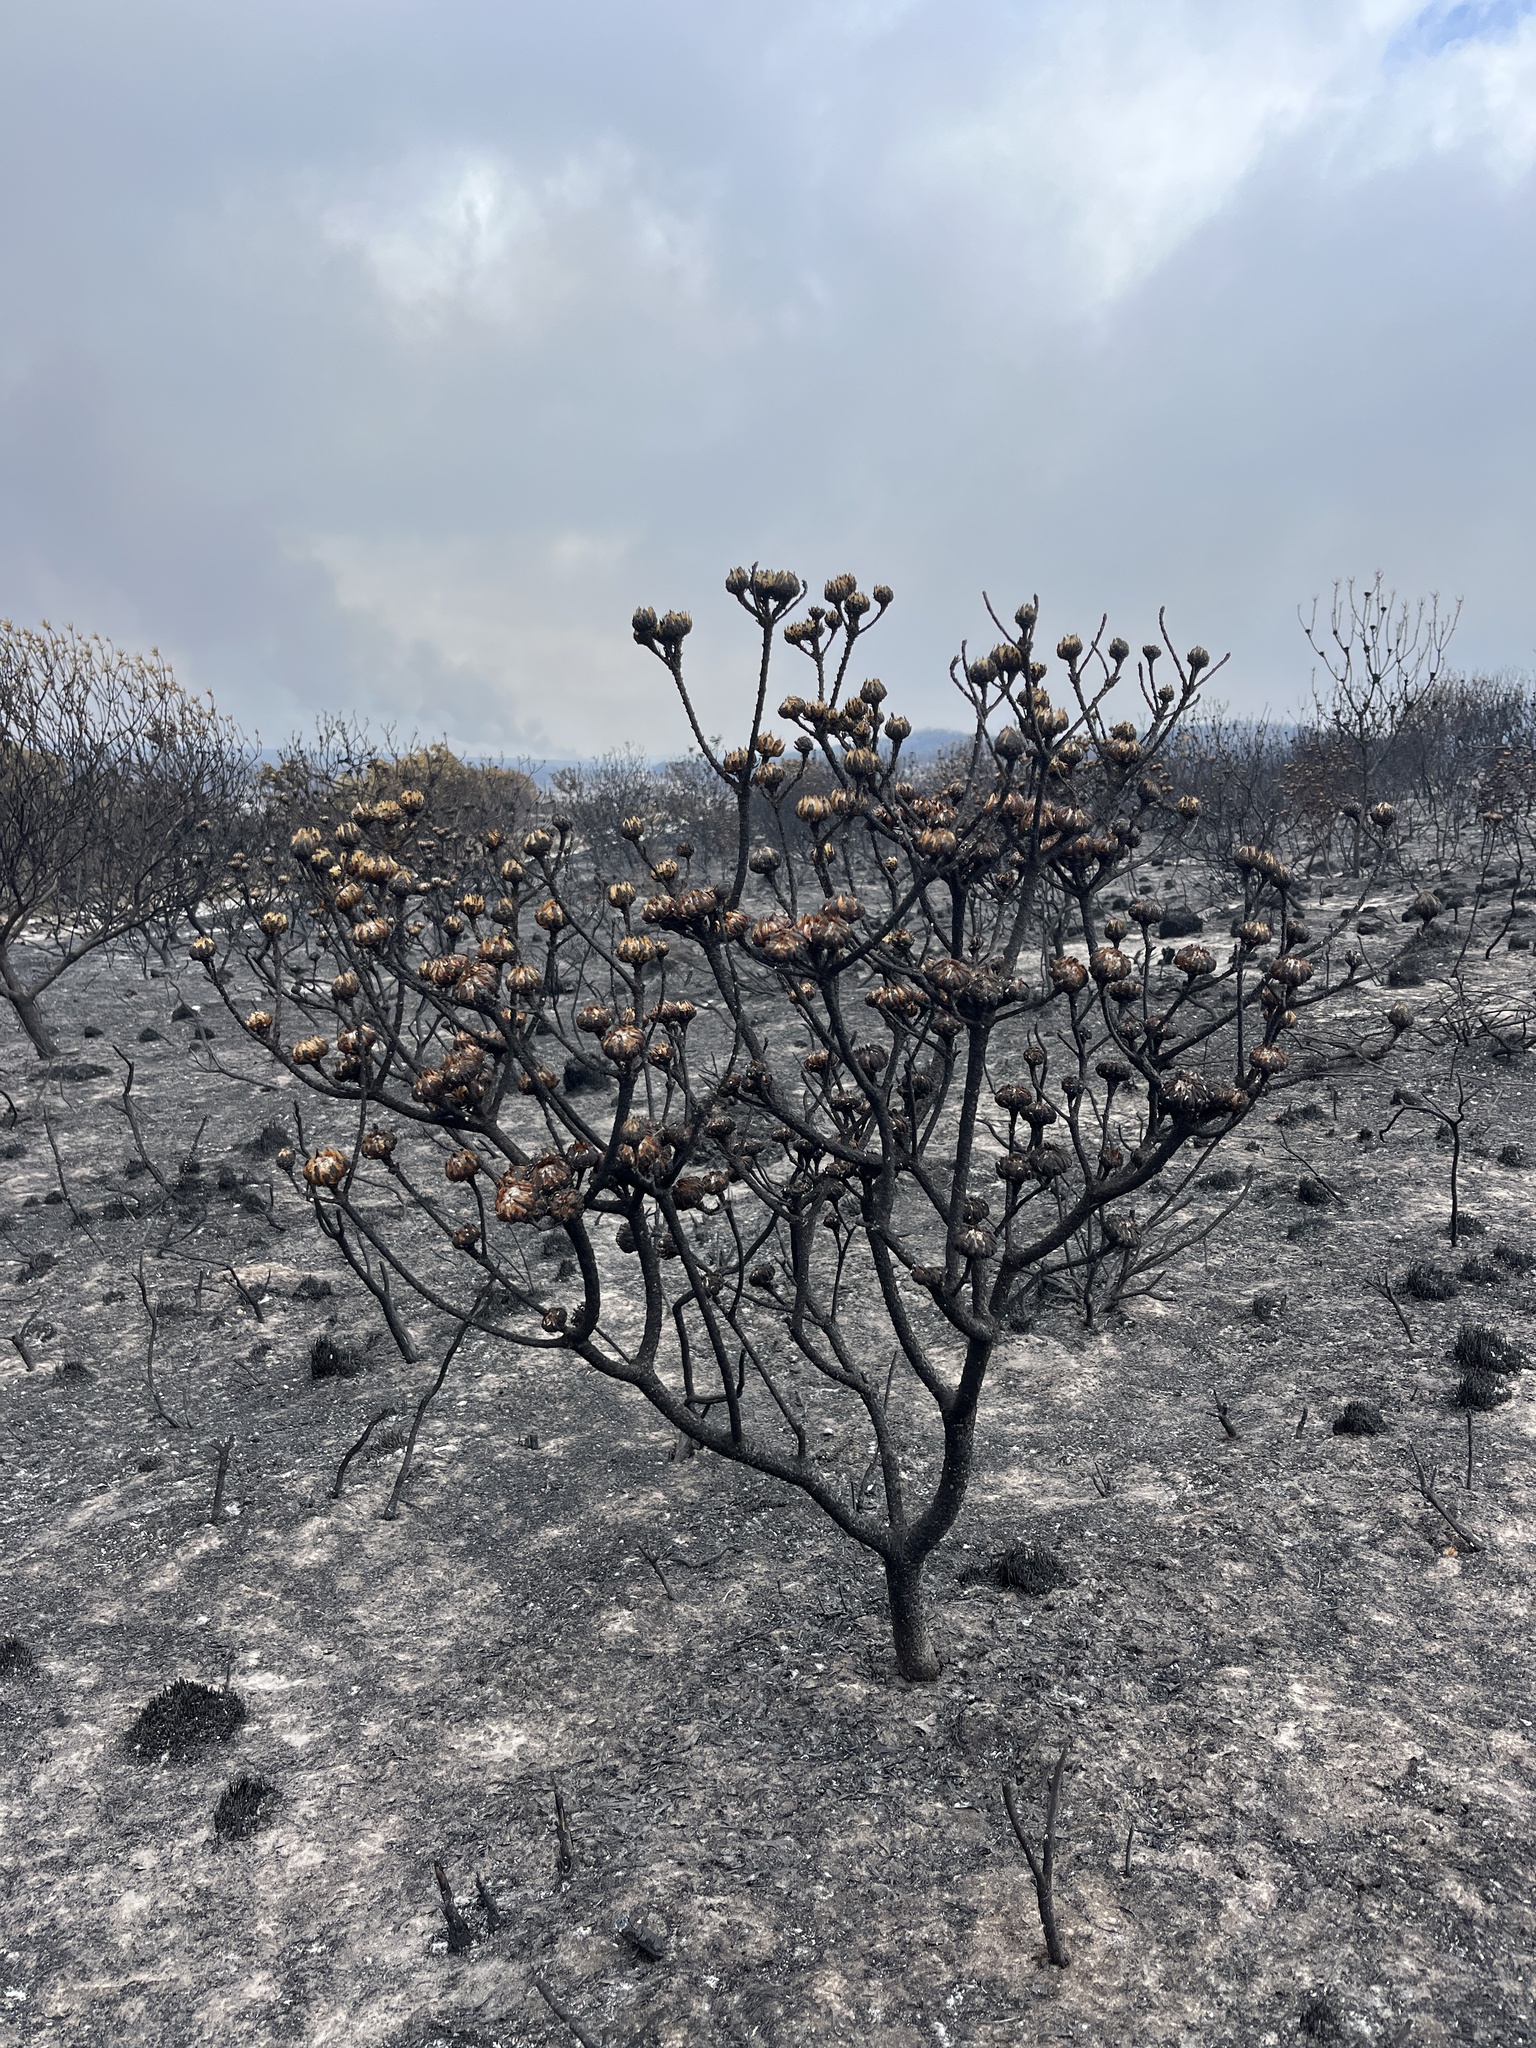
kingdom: Plantae
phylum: Tracheophyta
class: Magnoliopsida
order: Proteales
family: Proteaceae
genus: Aulax
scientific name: Aulax umbellata
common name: Broad-leaf featherbush
